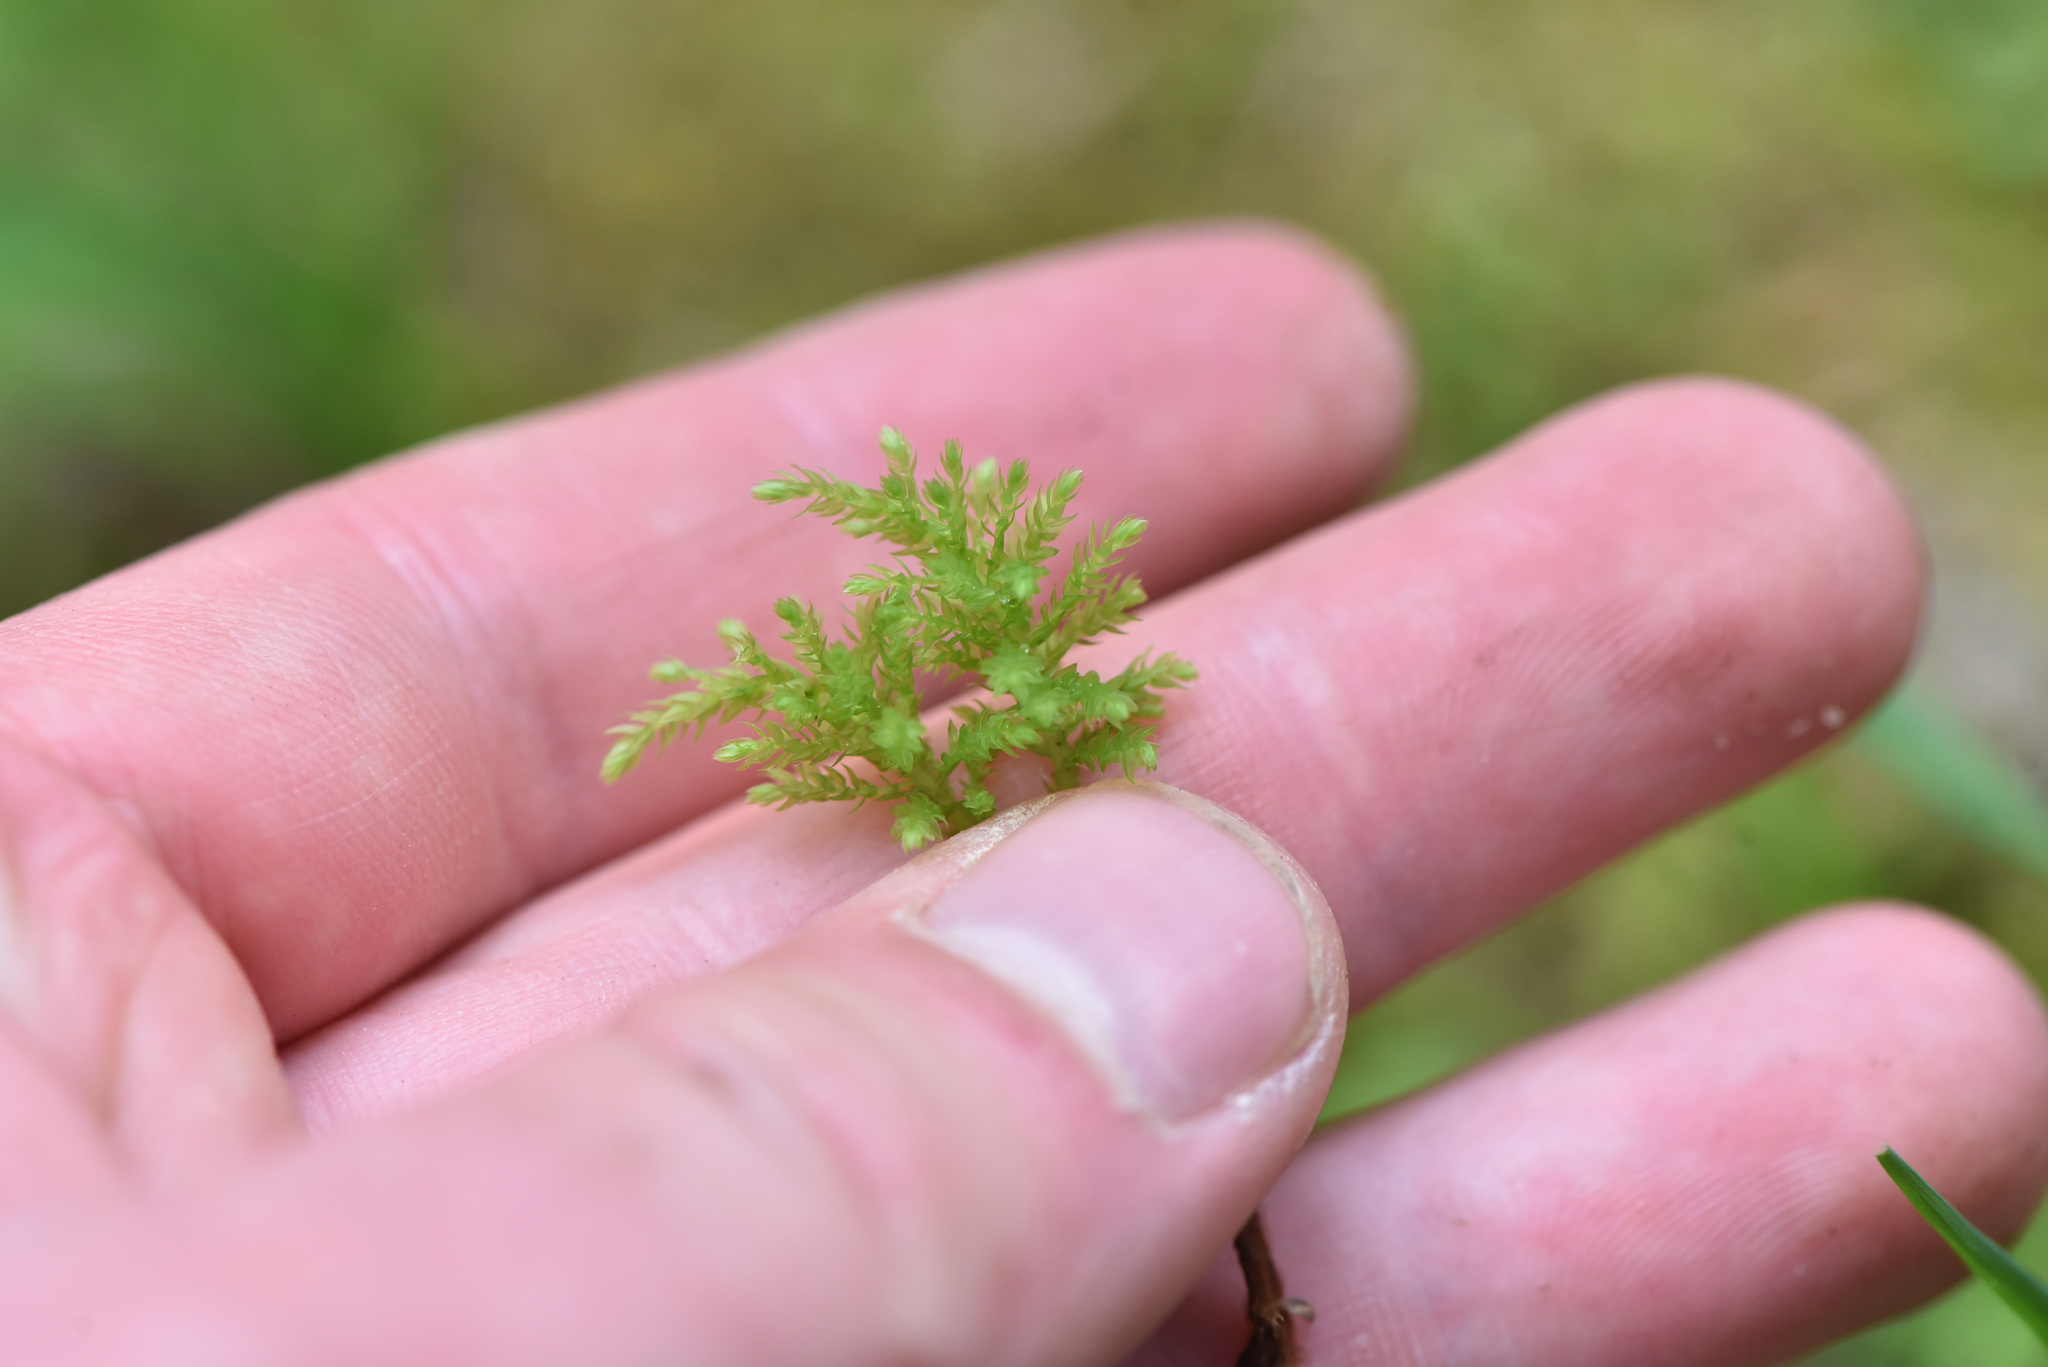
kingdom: Plantae
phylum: Bryophyta
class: Bryopsida
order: Bryales
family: Mniaceae
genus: Leucolepis
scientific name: Leucolepis acanthoneura
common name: Leucolepis umbrella moss
